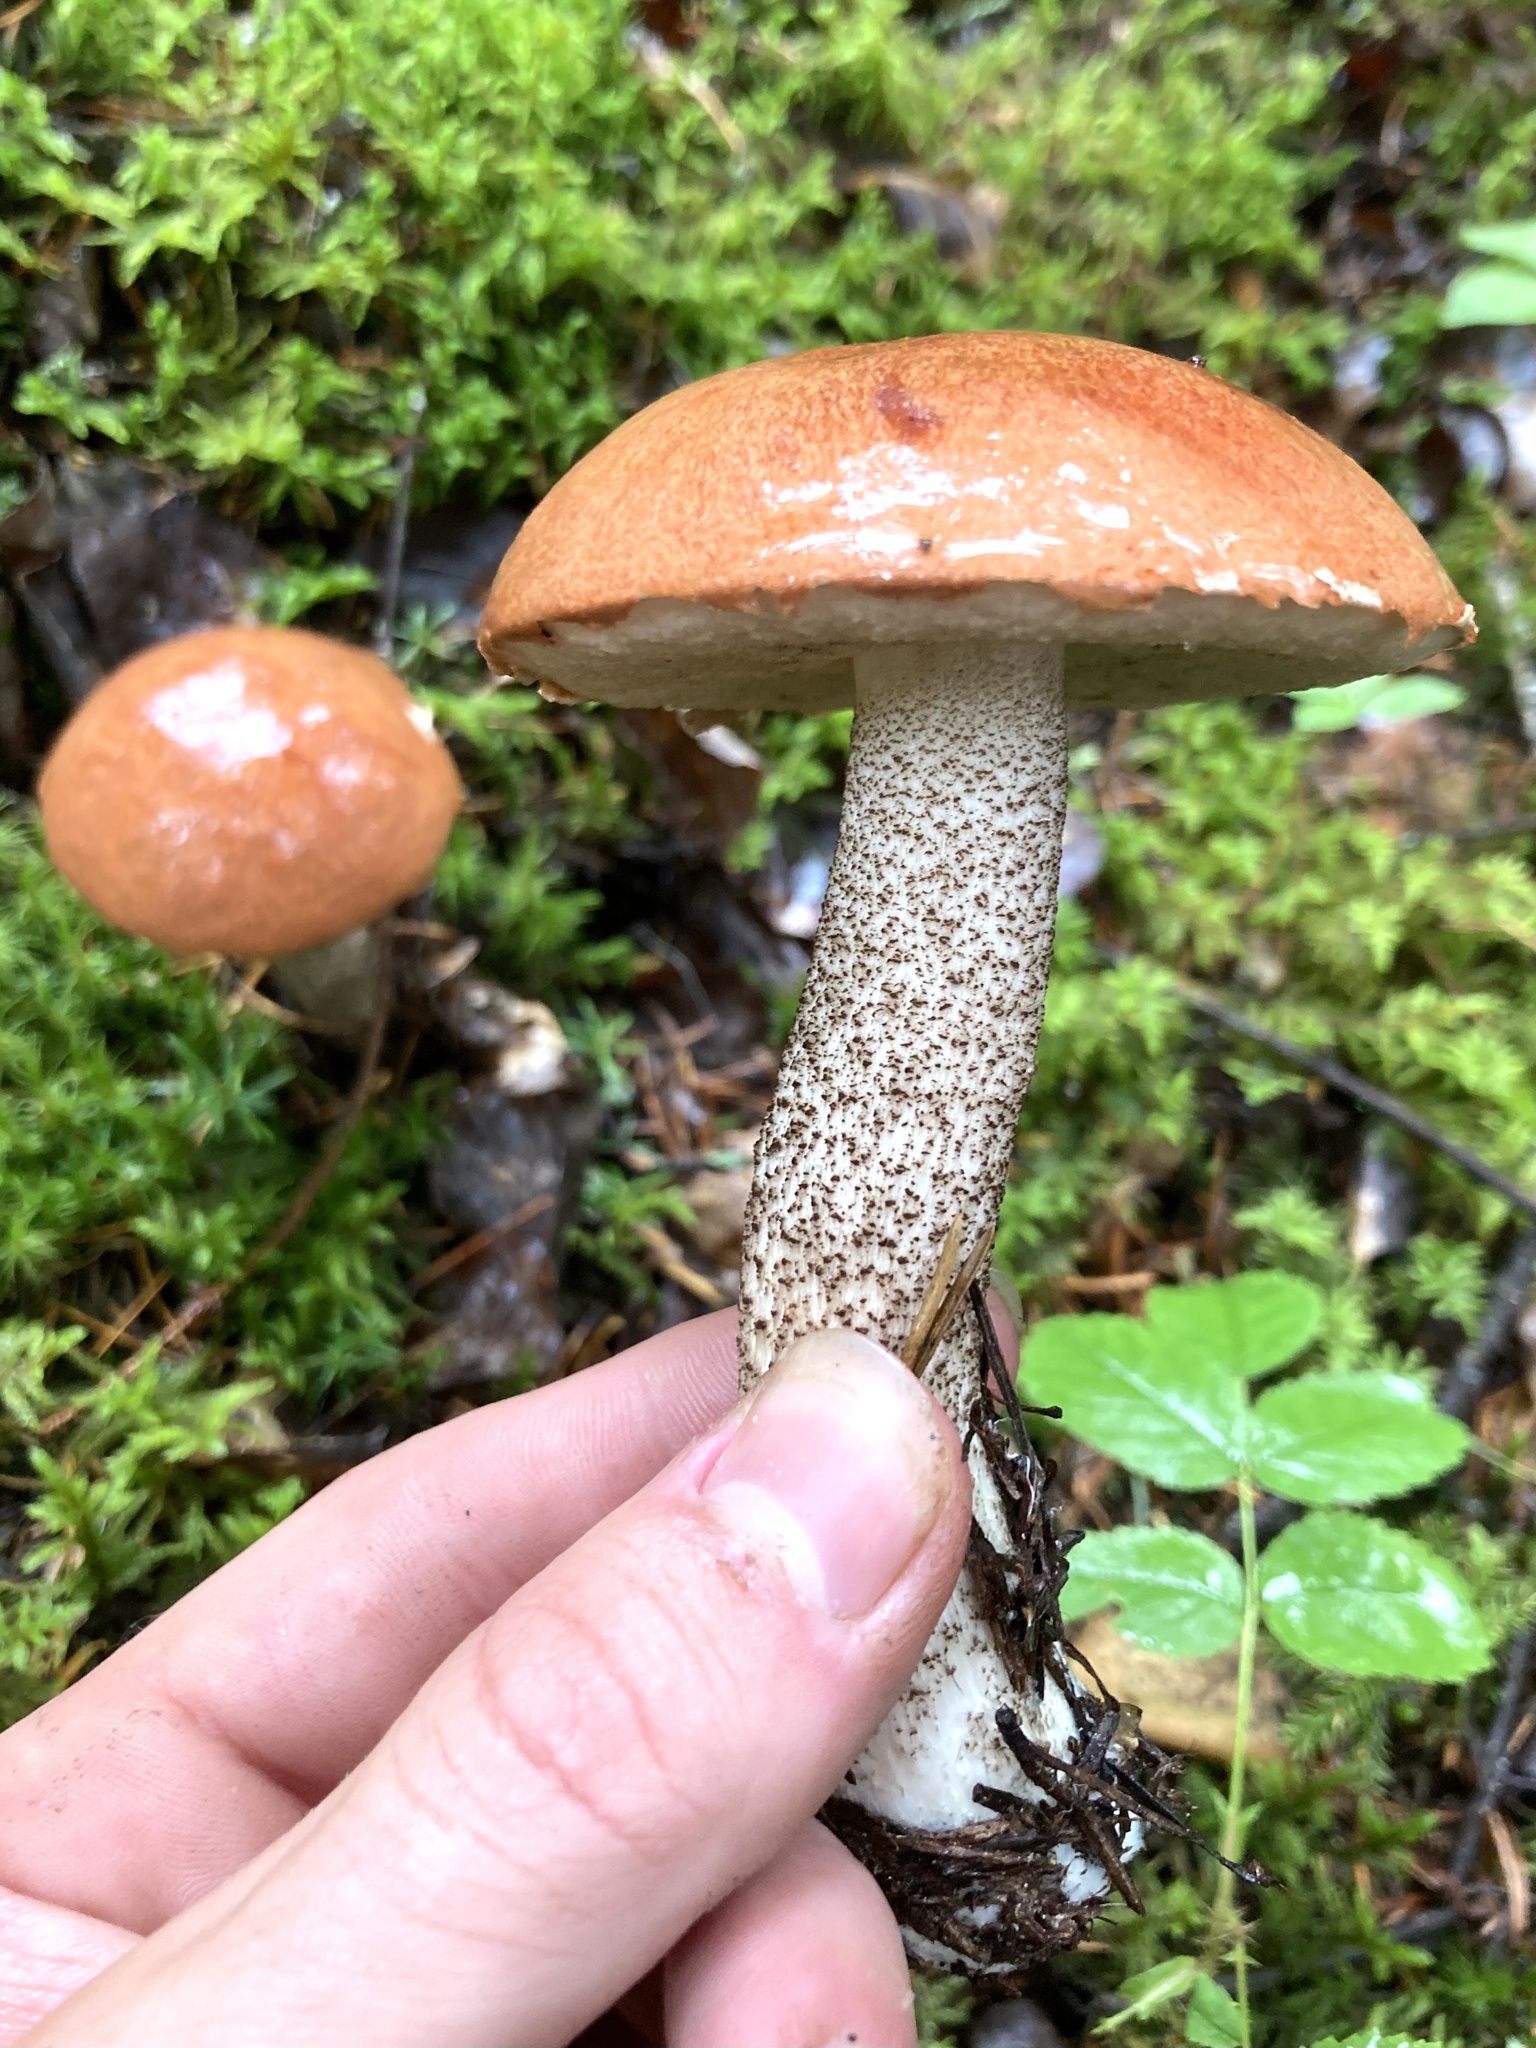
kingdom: Fungi
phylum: Basidiomycota
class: Agaricomycetes
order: Boletales
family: Boletaceae
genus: Leccinum
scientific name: Leccinum insigne
